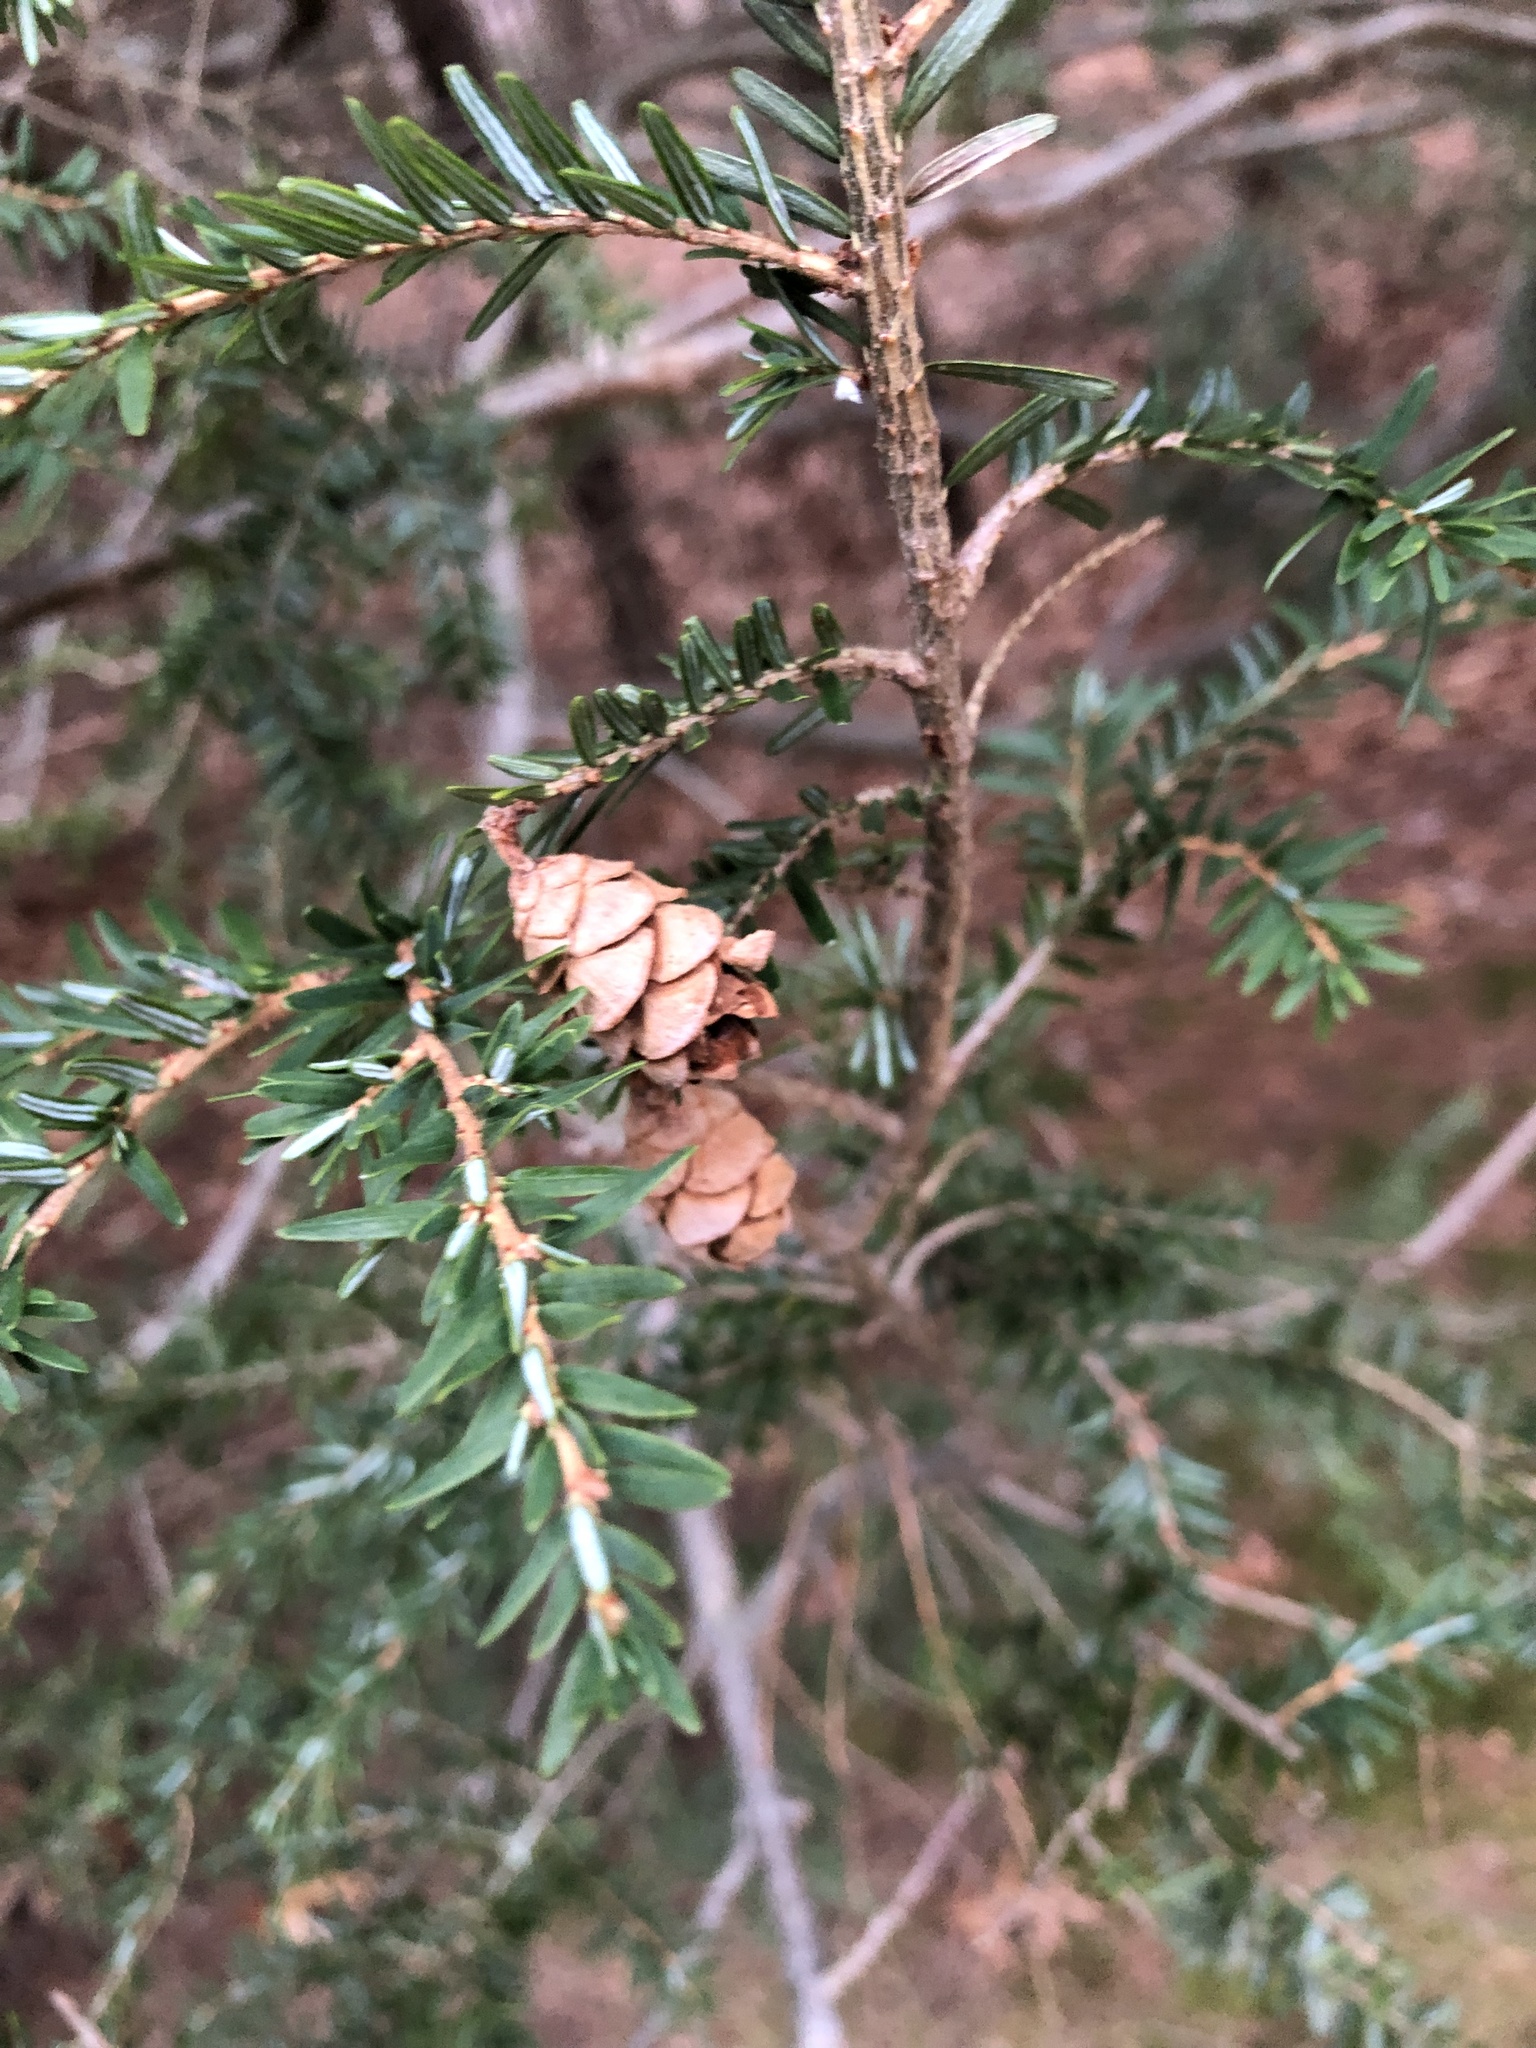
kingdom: Plantae
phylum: Tracheophyta
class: Pinopsida
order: Pinales
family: Pinaceae
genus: Tsuga
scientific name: Tsuga canadensis
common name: Eastern hemlock
